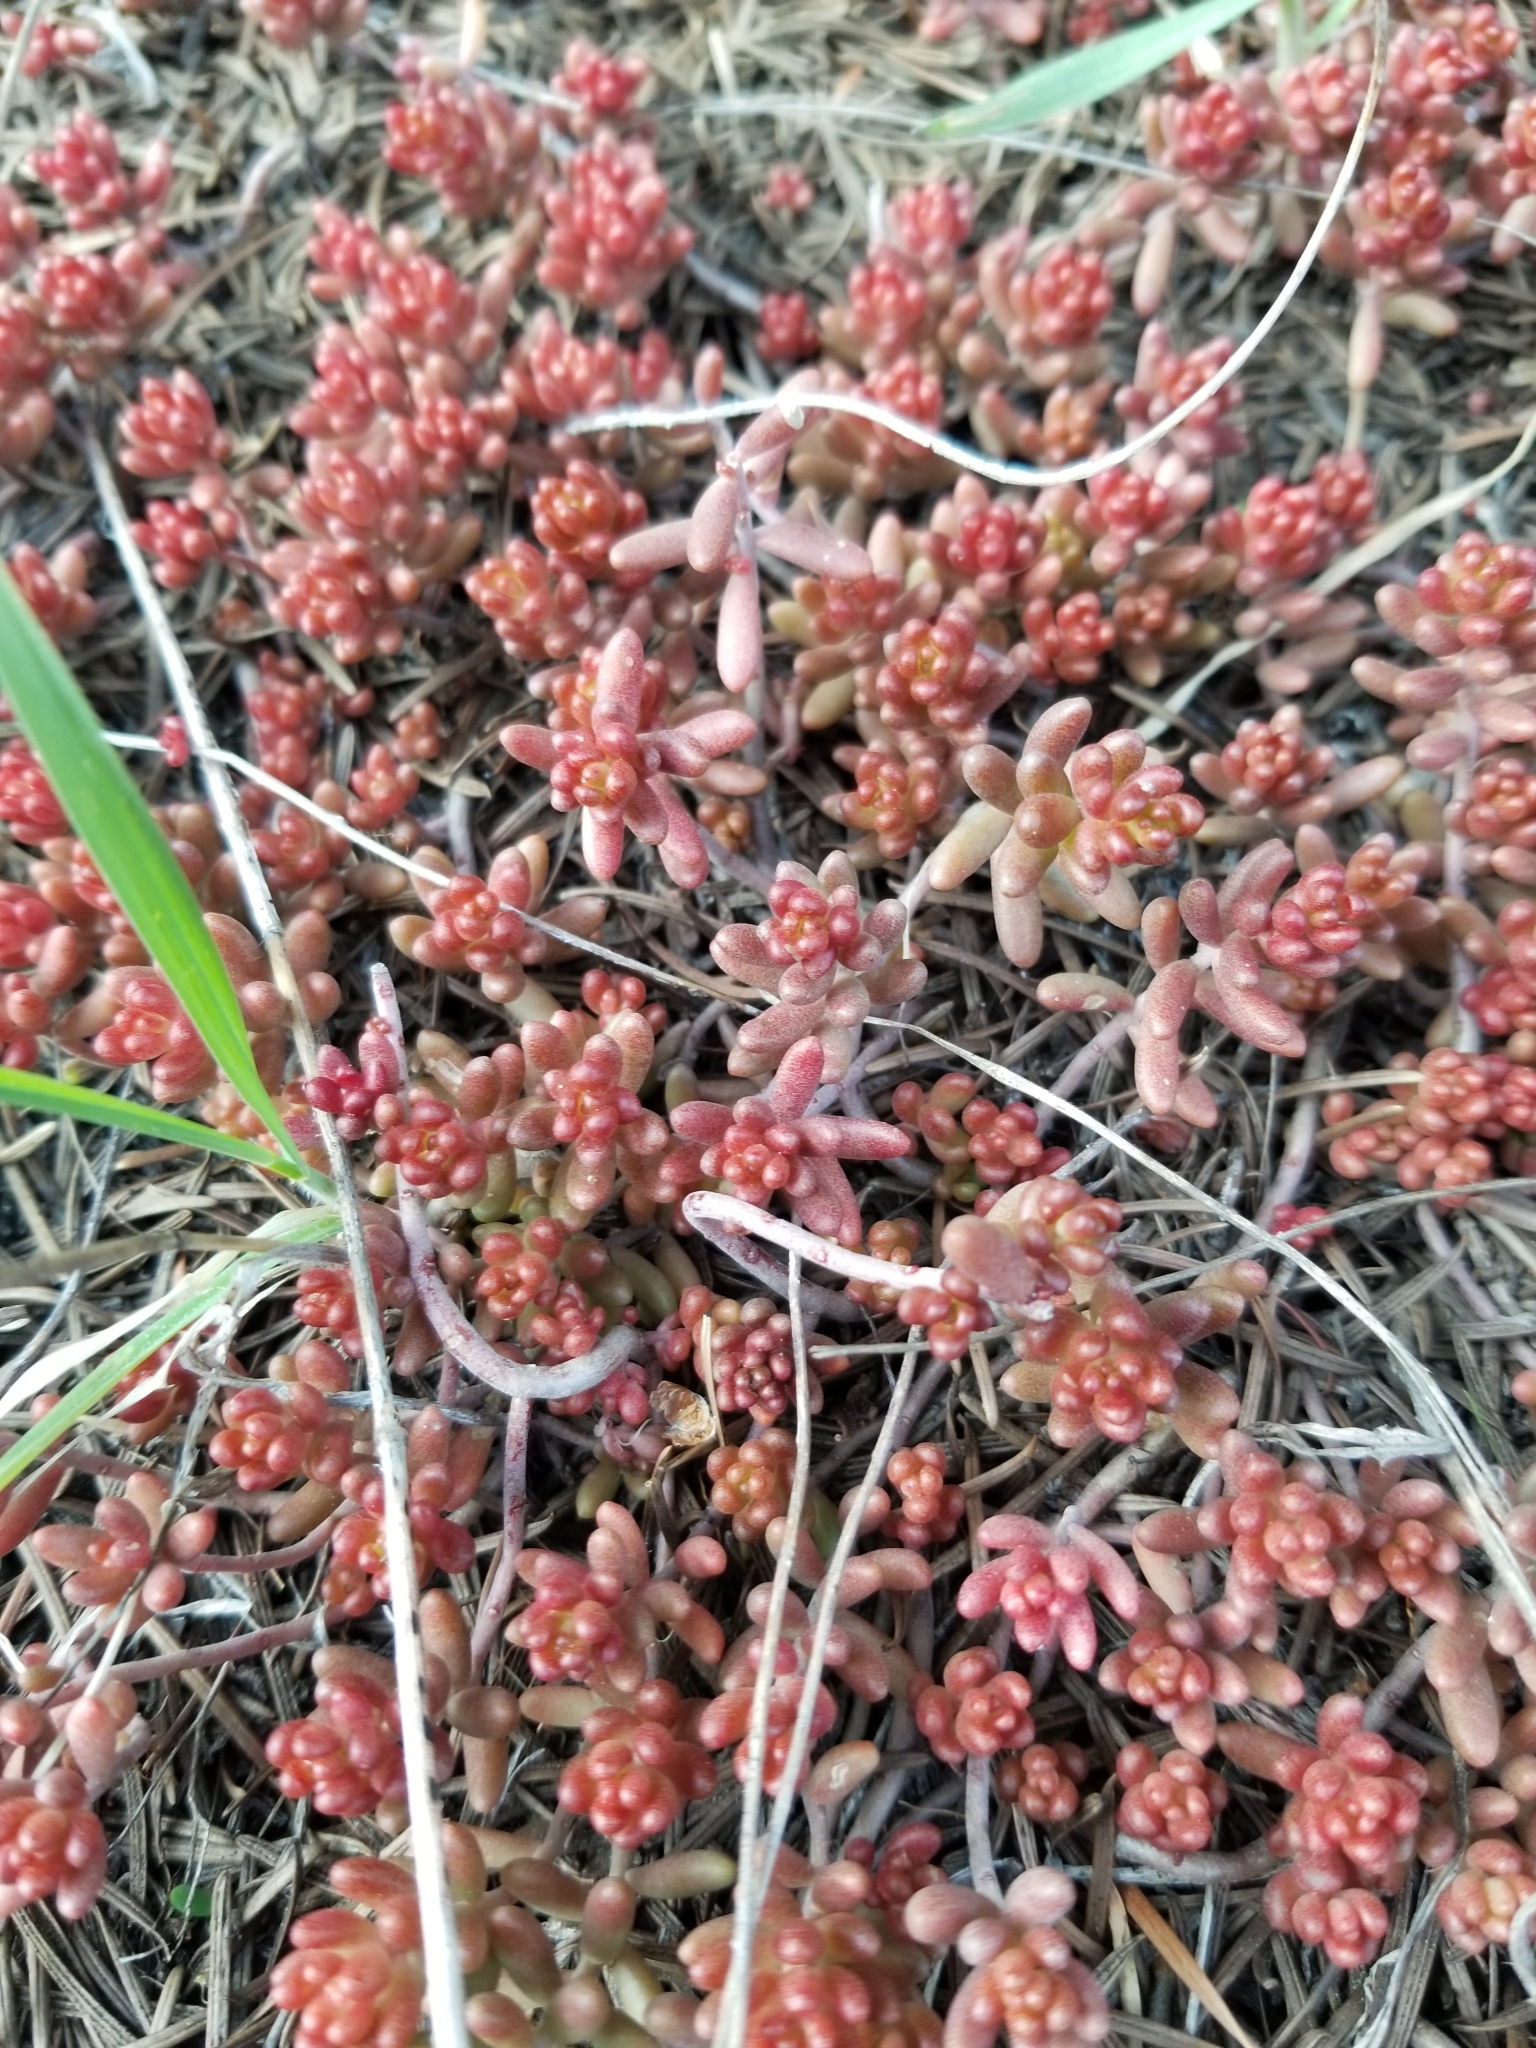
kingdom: Plantae
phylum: Tracheophyta
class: Magnoliopsida
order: Saxifragales
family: Crassulaceae
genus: Sedum
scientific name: Sedum album
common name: White stonecrop
